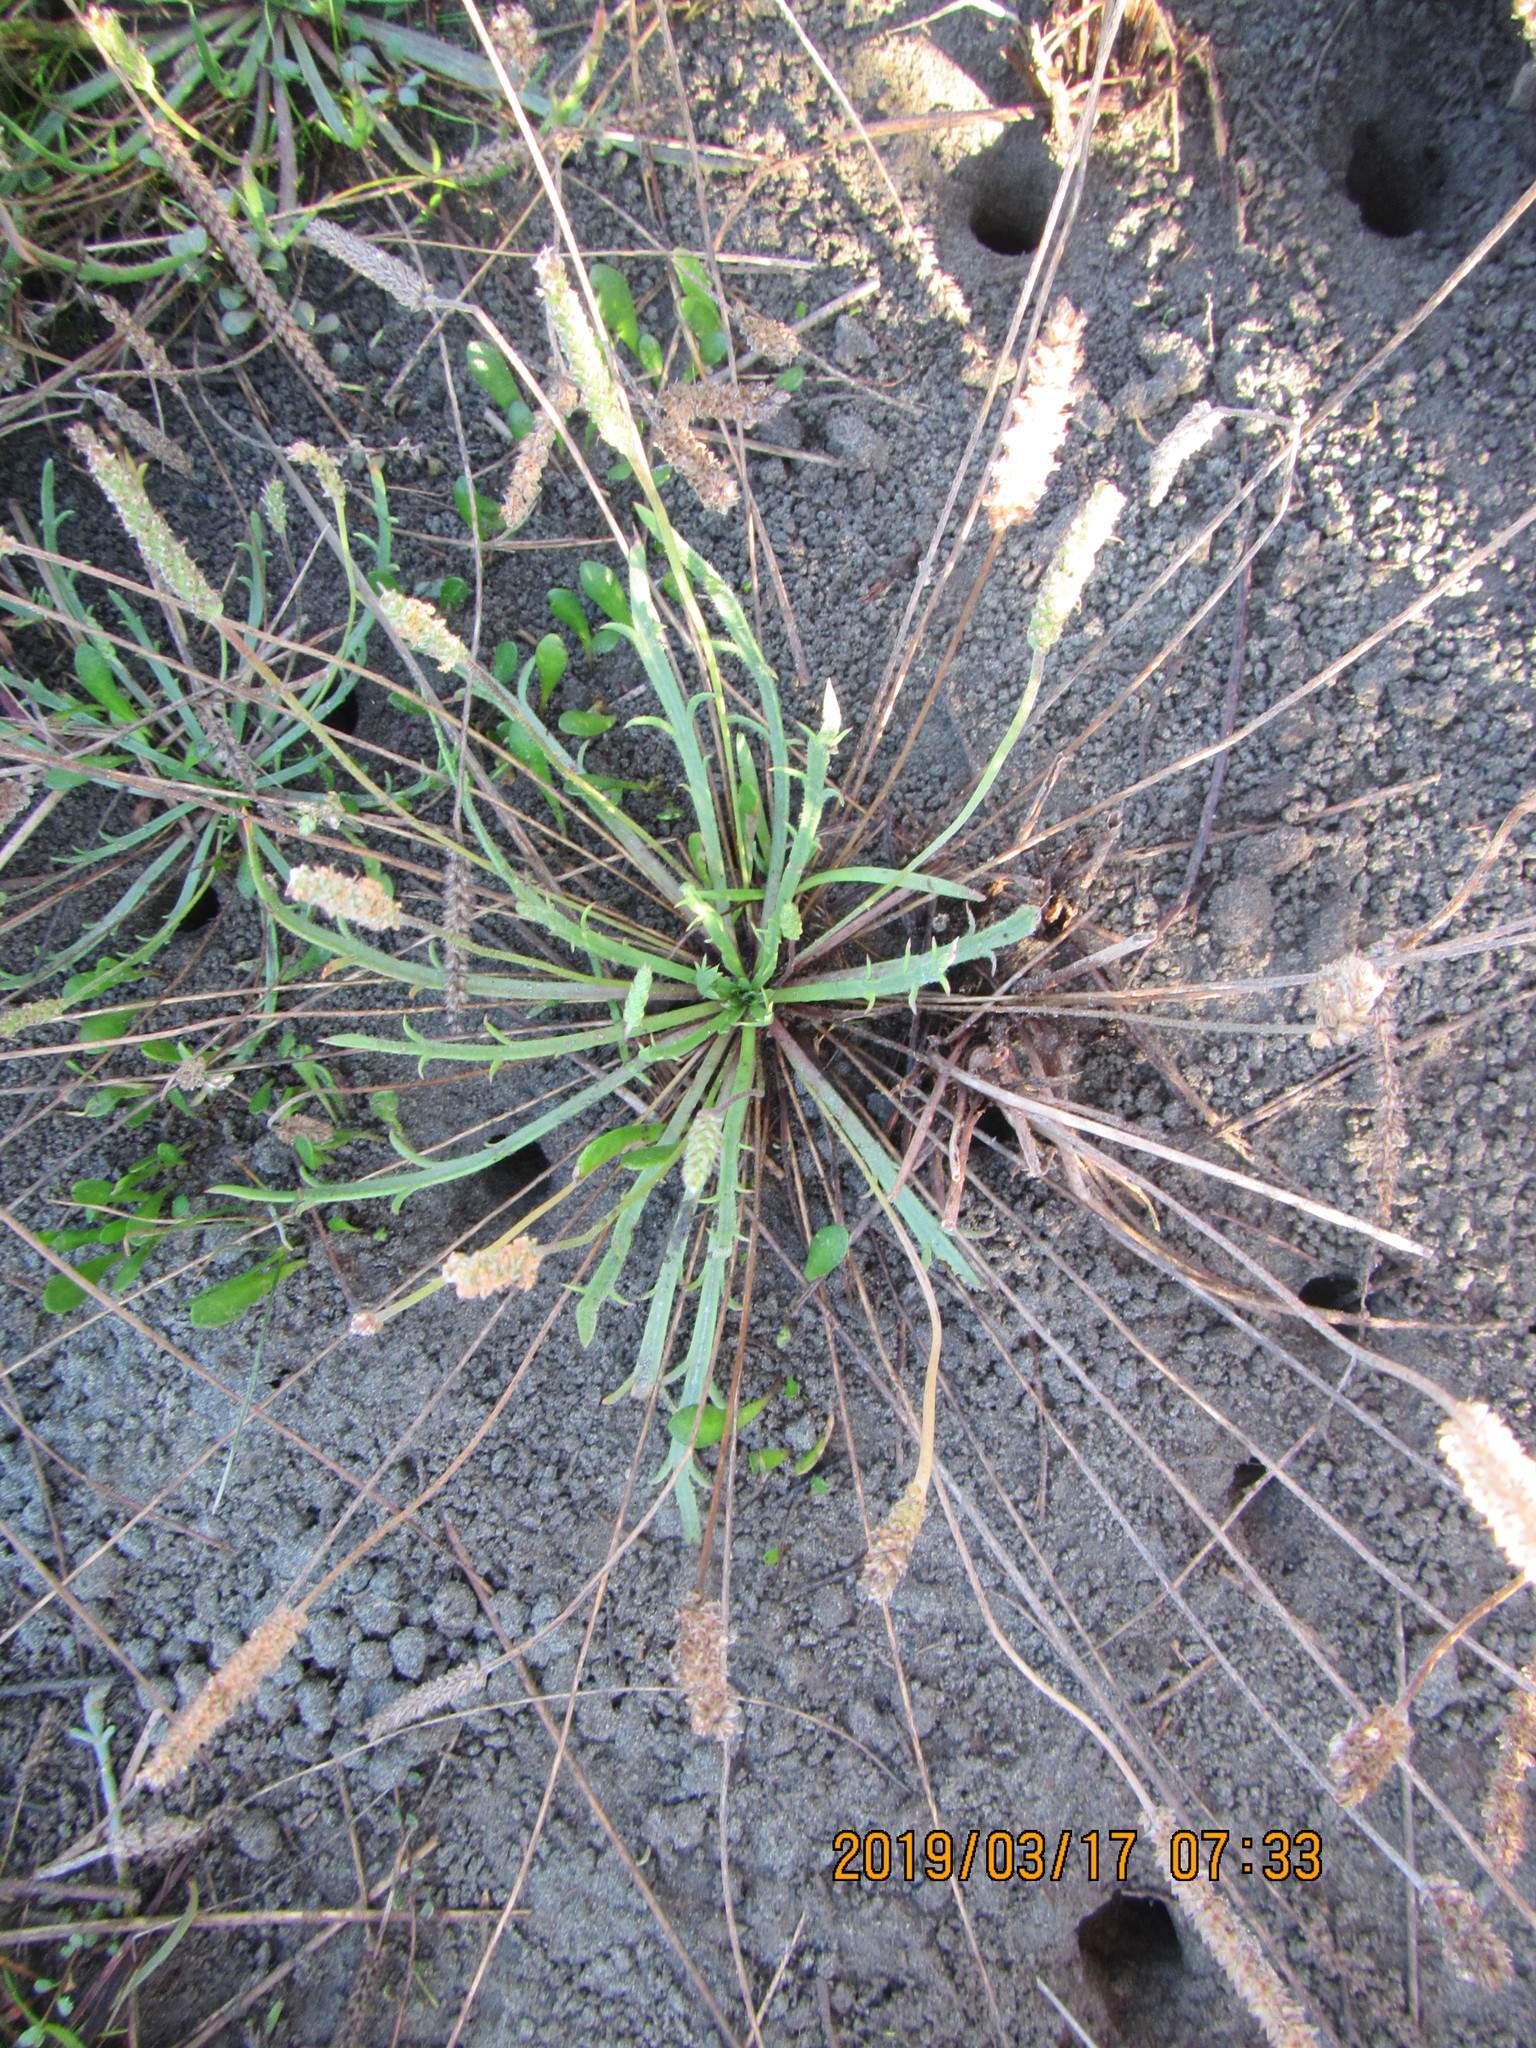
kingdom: Plantae
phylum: Tracheophyta
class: Magnoliopsida
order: Lamiales
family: Plantaginaceae
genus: Plantago
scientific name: Plantago coronopus
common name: Buck's-horn plantain
